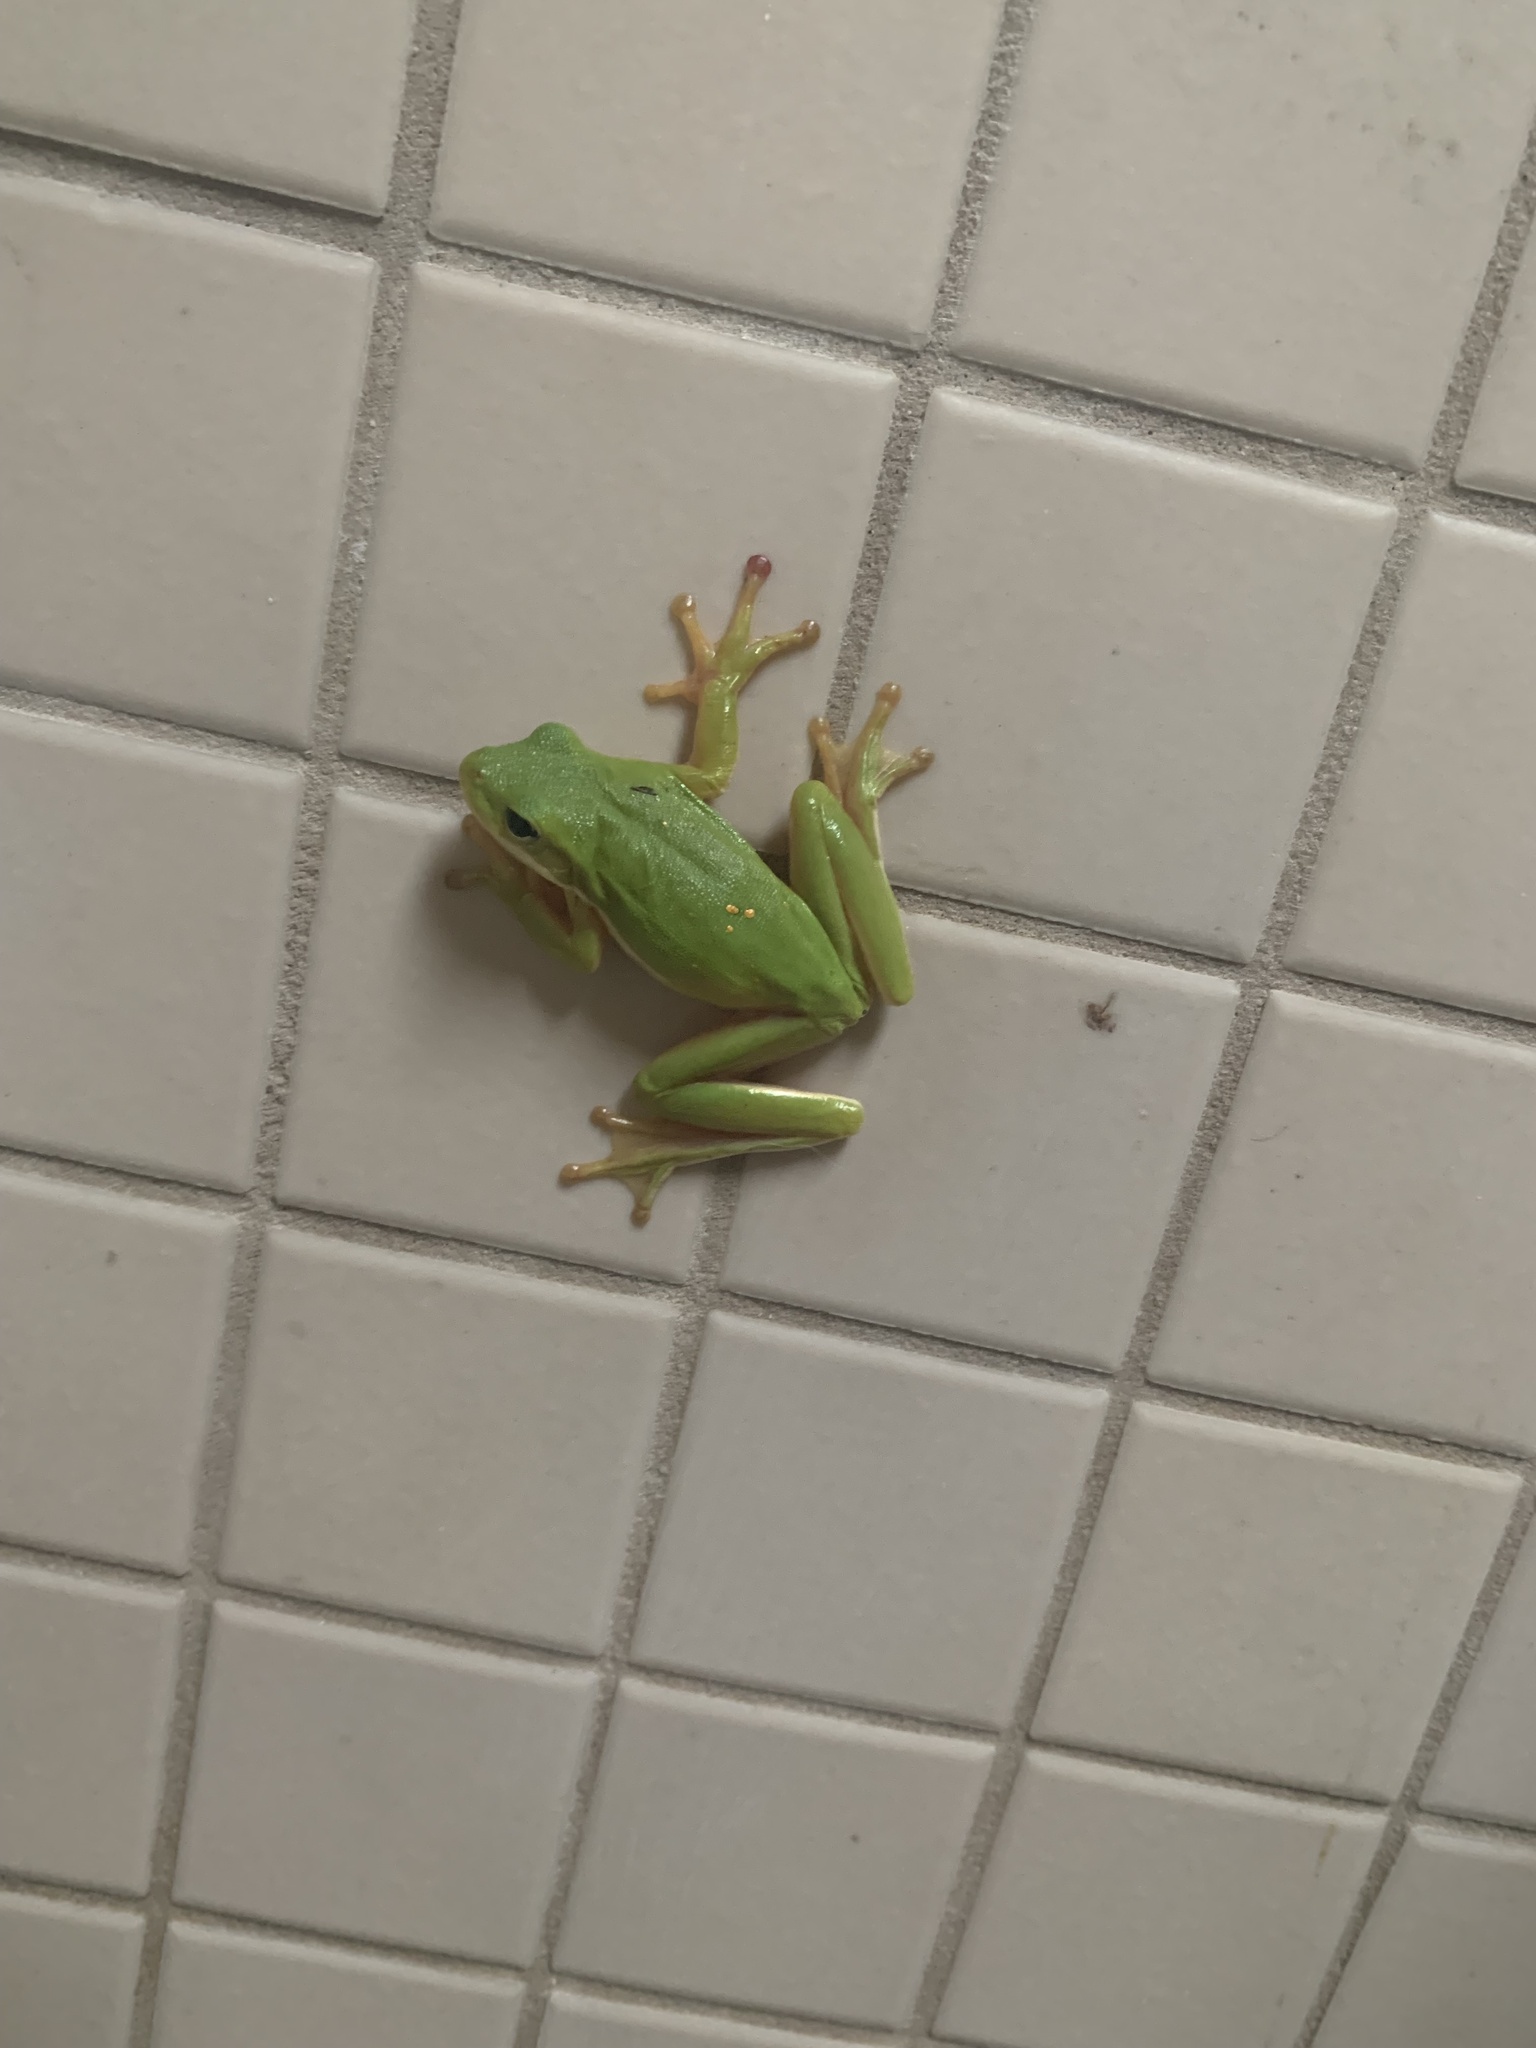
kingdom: Animalia
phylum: Chordata
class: Amphibia
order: Anura
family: Hylidae
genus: Dryophytes
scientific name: Dryophytes cinereus
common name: Green treefrog
